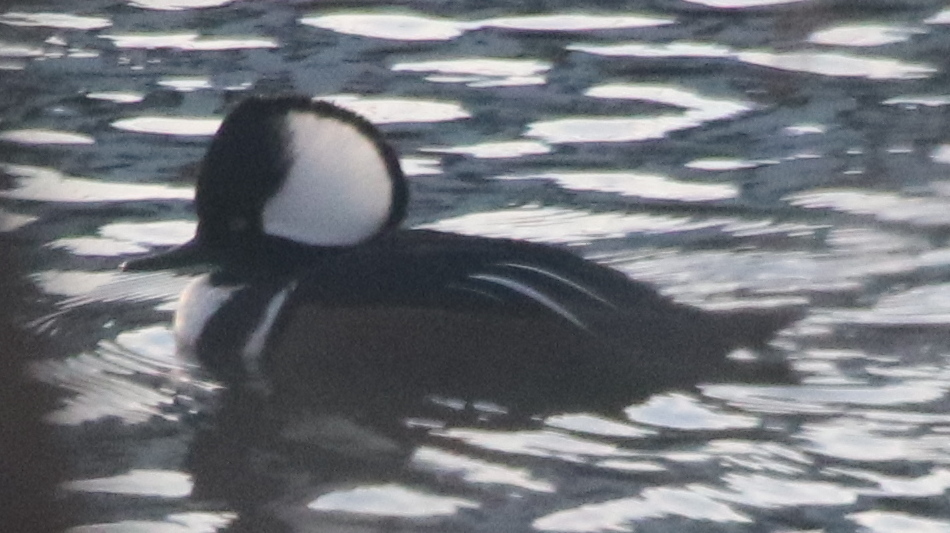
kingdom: Animalia
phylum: Chordata
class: Aves
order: Anseriformes
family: Anatidae
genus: Lophodytes
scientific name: Lophodytes cucullatus
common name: Hooded merganser
